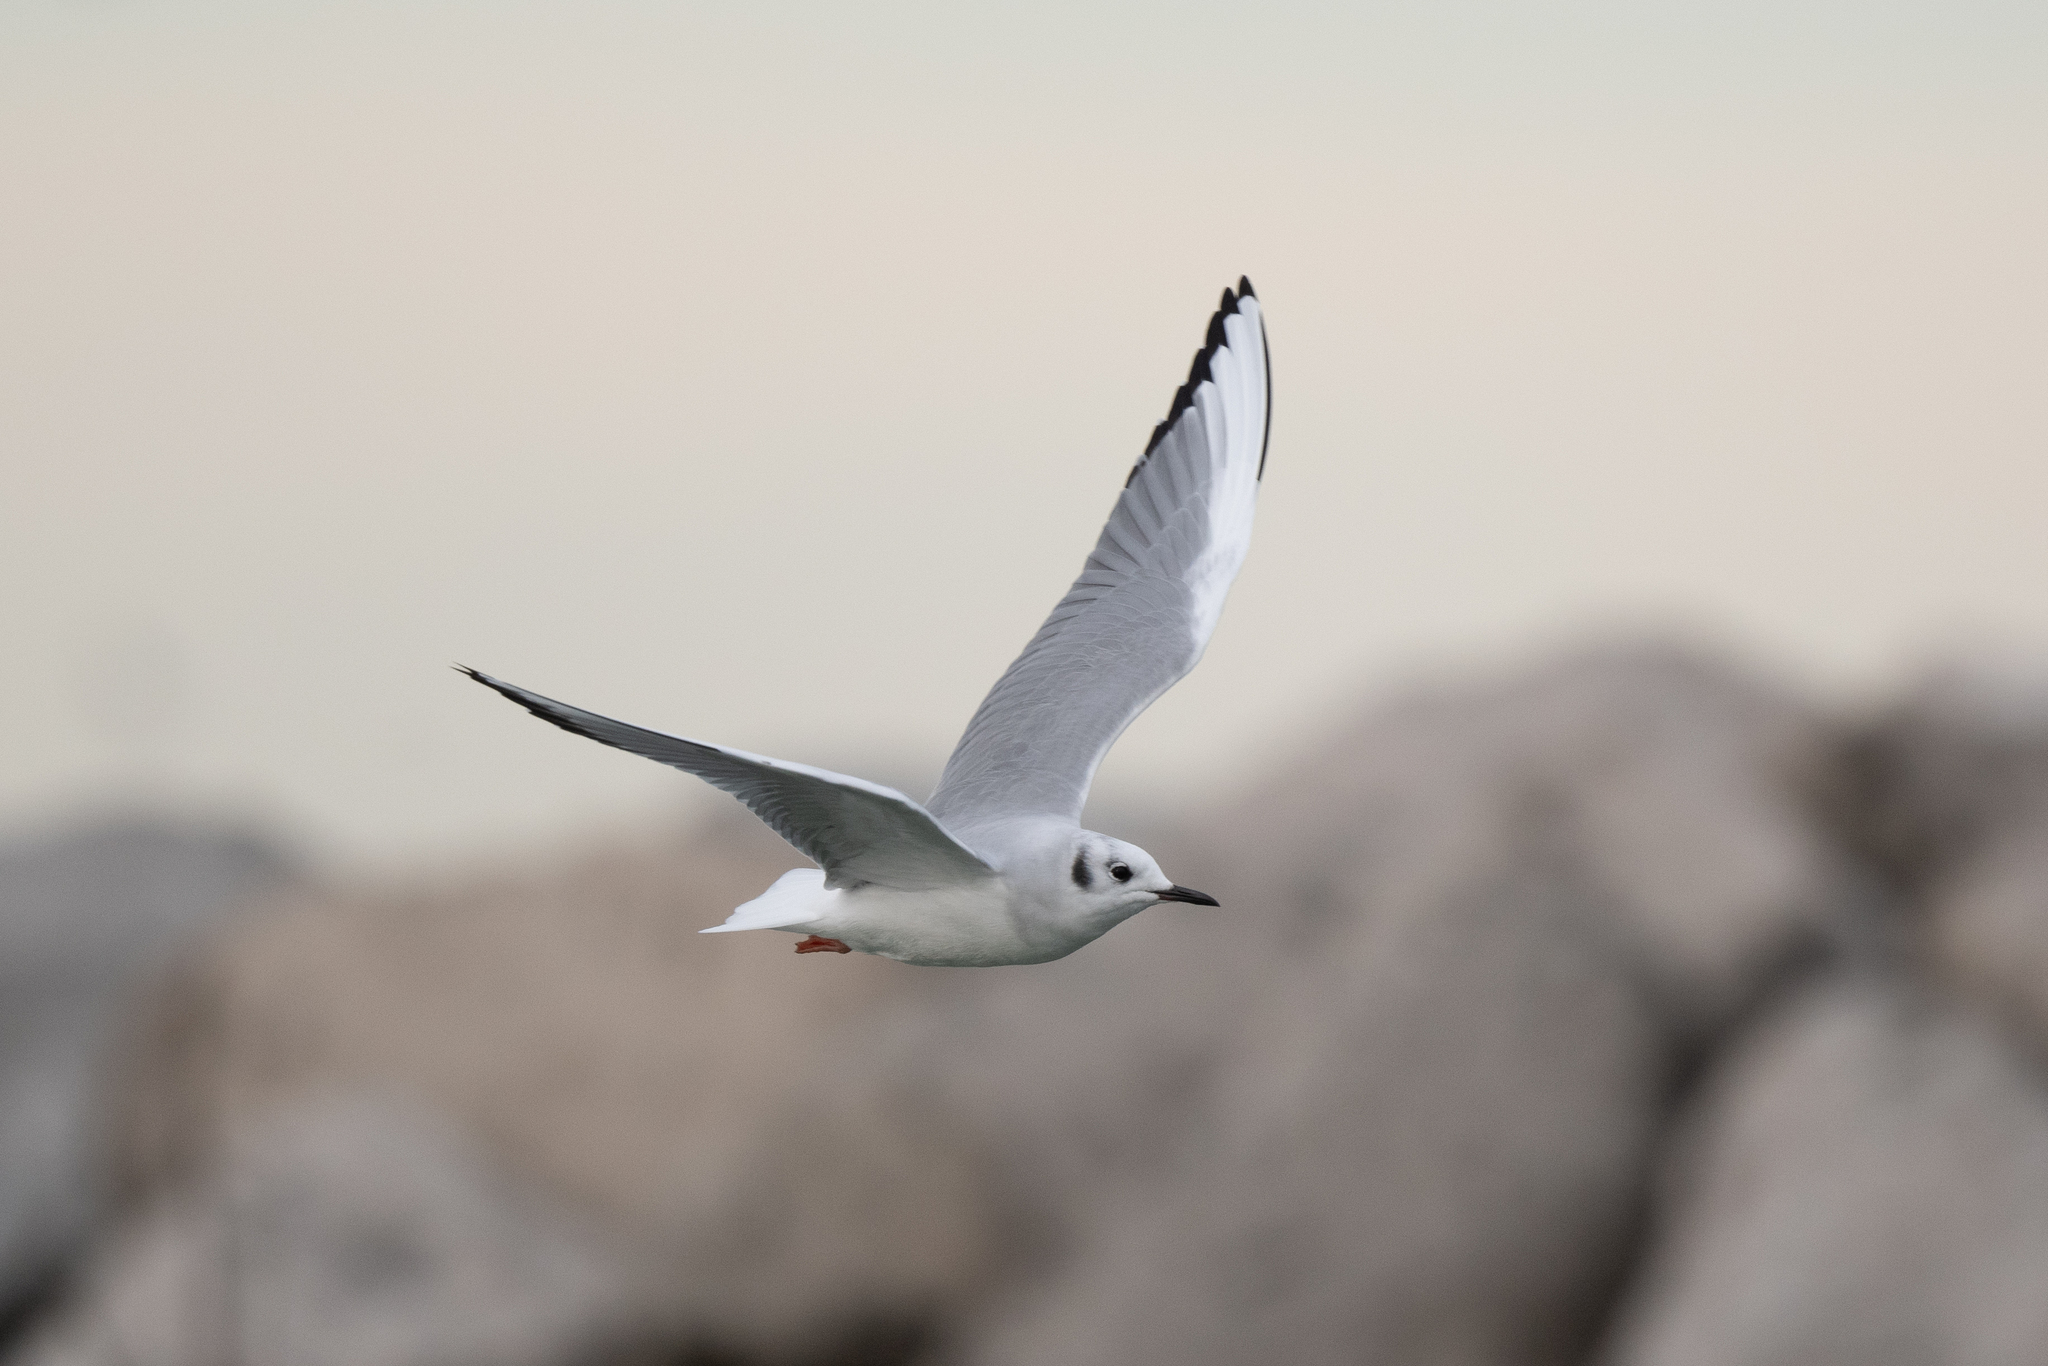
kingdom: Animalia
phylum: Chordata
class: Aves
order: Charadriiformes
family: Laridae
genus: Chroicocephalus
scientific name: Chroicocephalus philadelphia
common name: Bonaparte's gull
